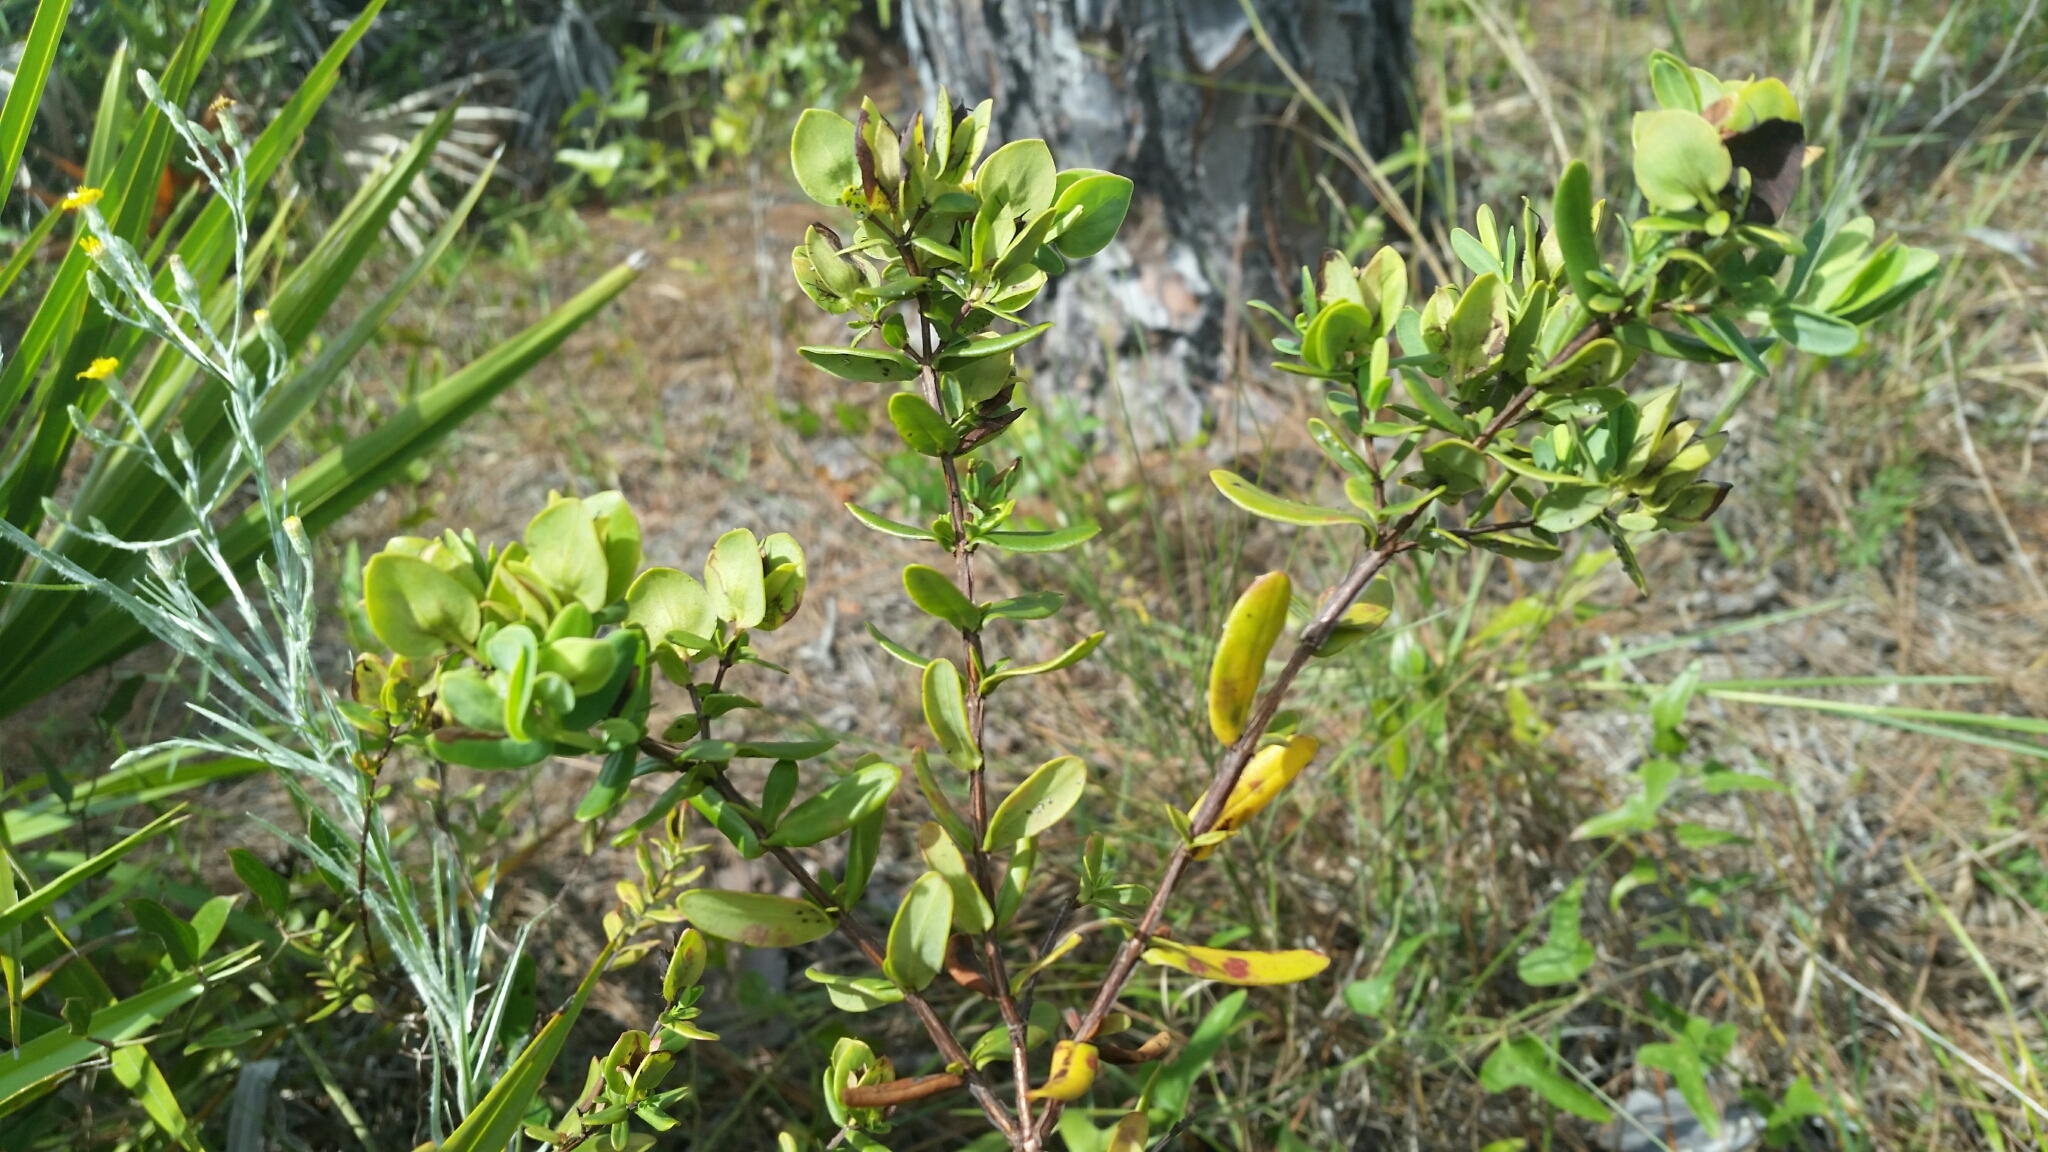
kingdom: Plantae
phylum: Tracheophyta
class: Magnoliopsida
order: Malpighiales
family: Hypericaceae
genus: Hypericum
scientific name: Hypericum crux-andreae
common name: St.-peter's-wort
